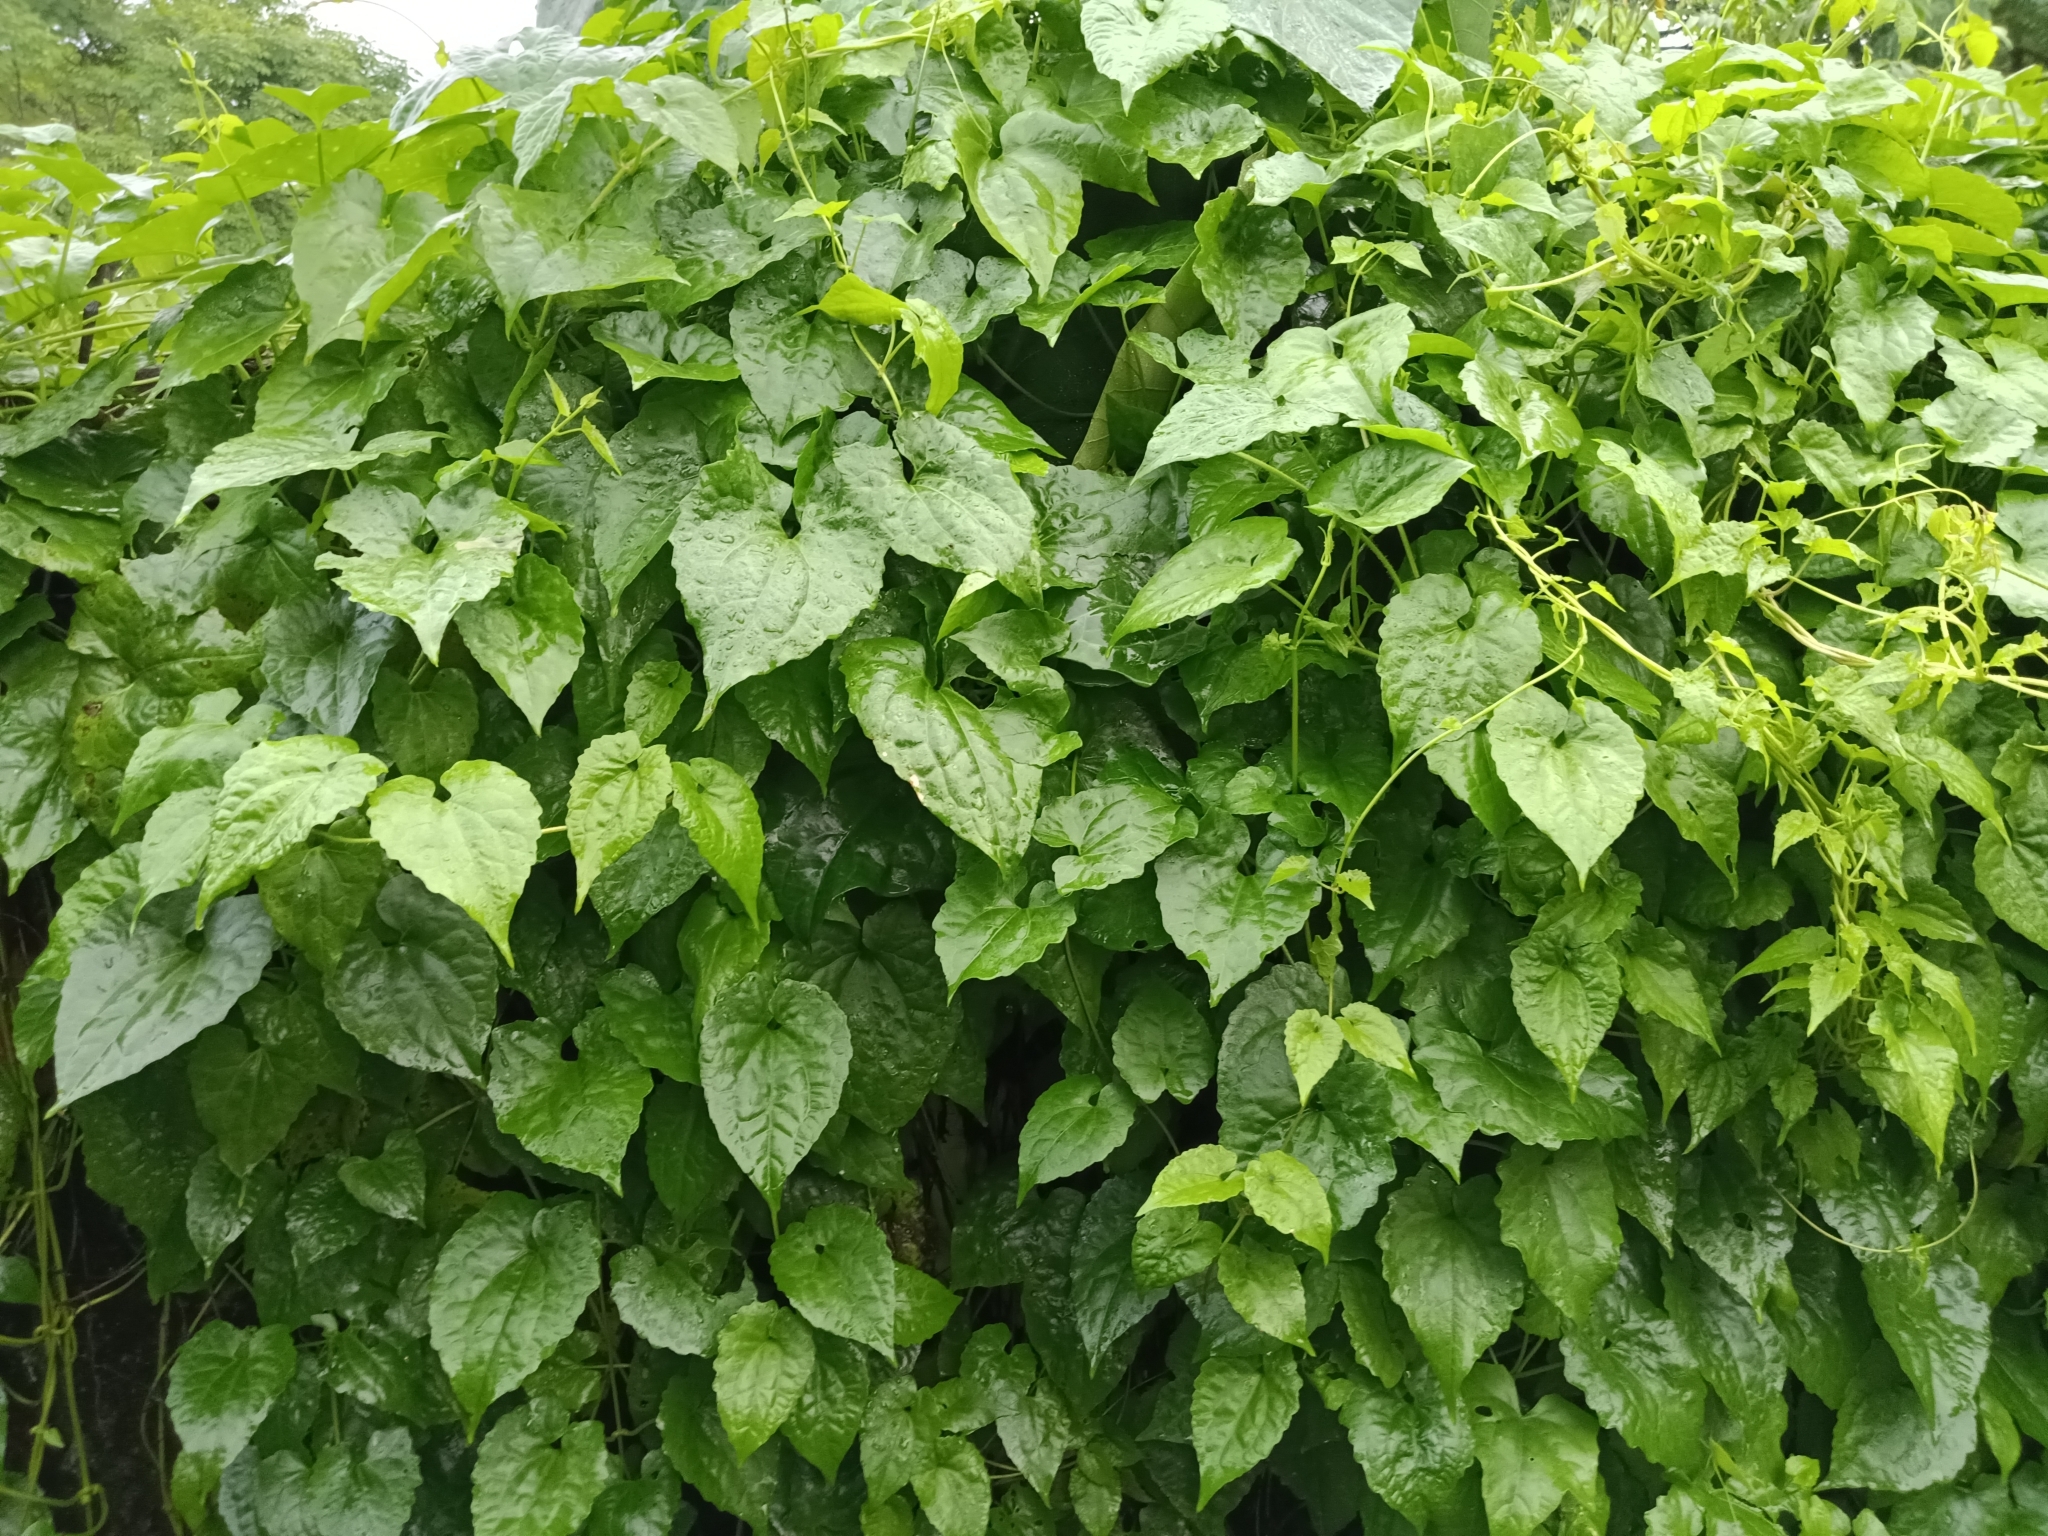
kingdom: Plantae
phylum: Tracheophyta
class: Magnoliopsida
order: Asterales
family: Asteraceae
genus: Mikania
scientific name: Mikania micrantha
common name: Mile-a-minute
